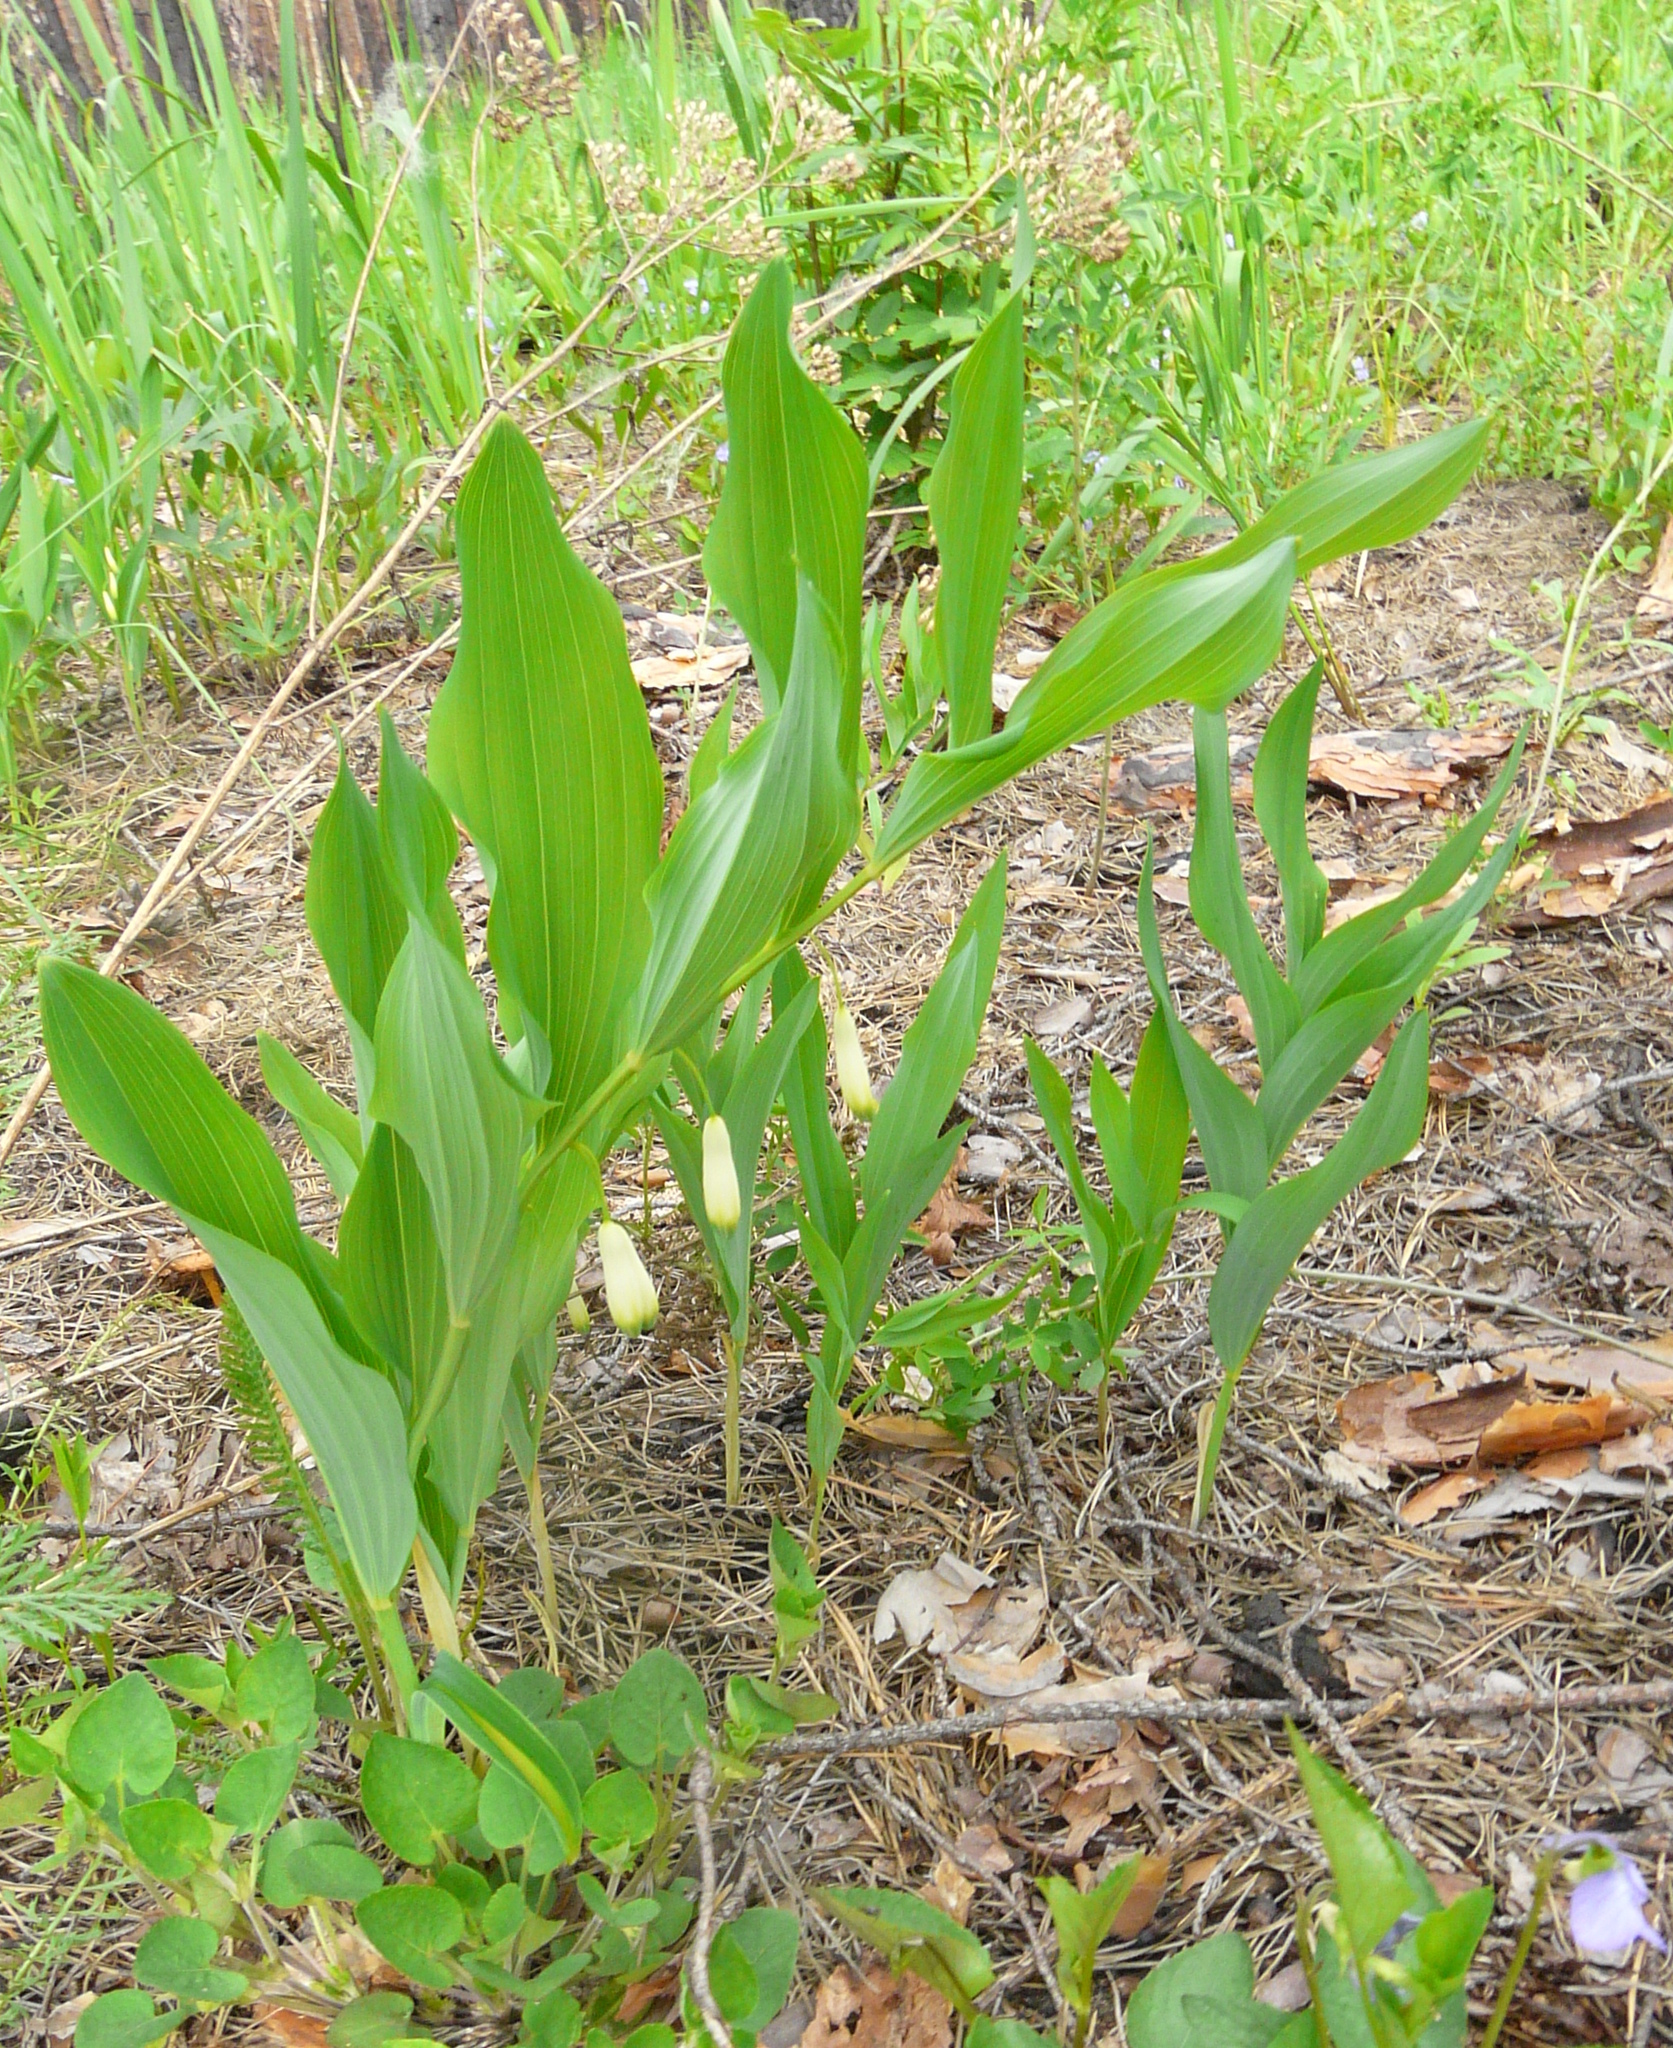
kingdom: Plantae
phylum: Tracheophyta
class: Liliopsida
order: Asparagales
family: Asparagaceae
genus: Polygonatum
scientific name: Polygonatum odoratum
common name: Angular solomon's-seal
